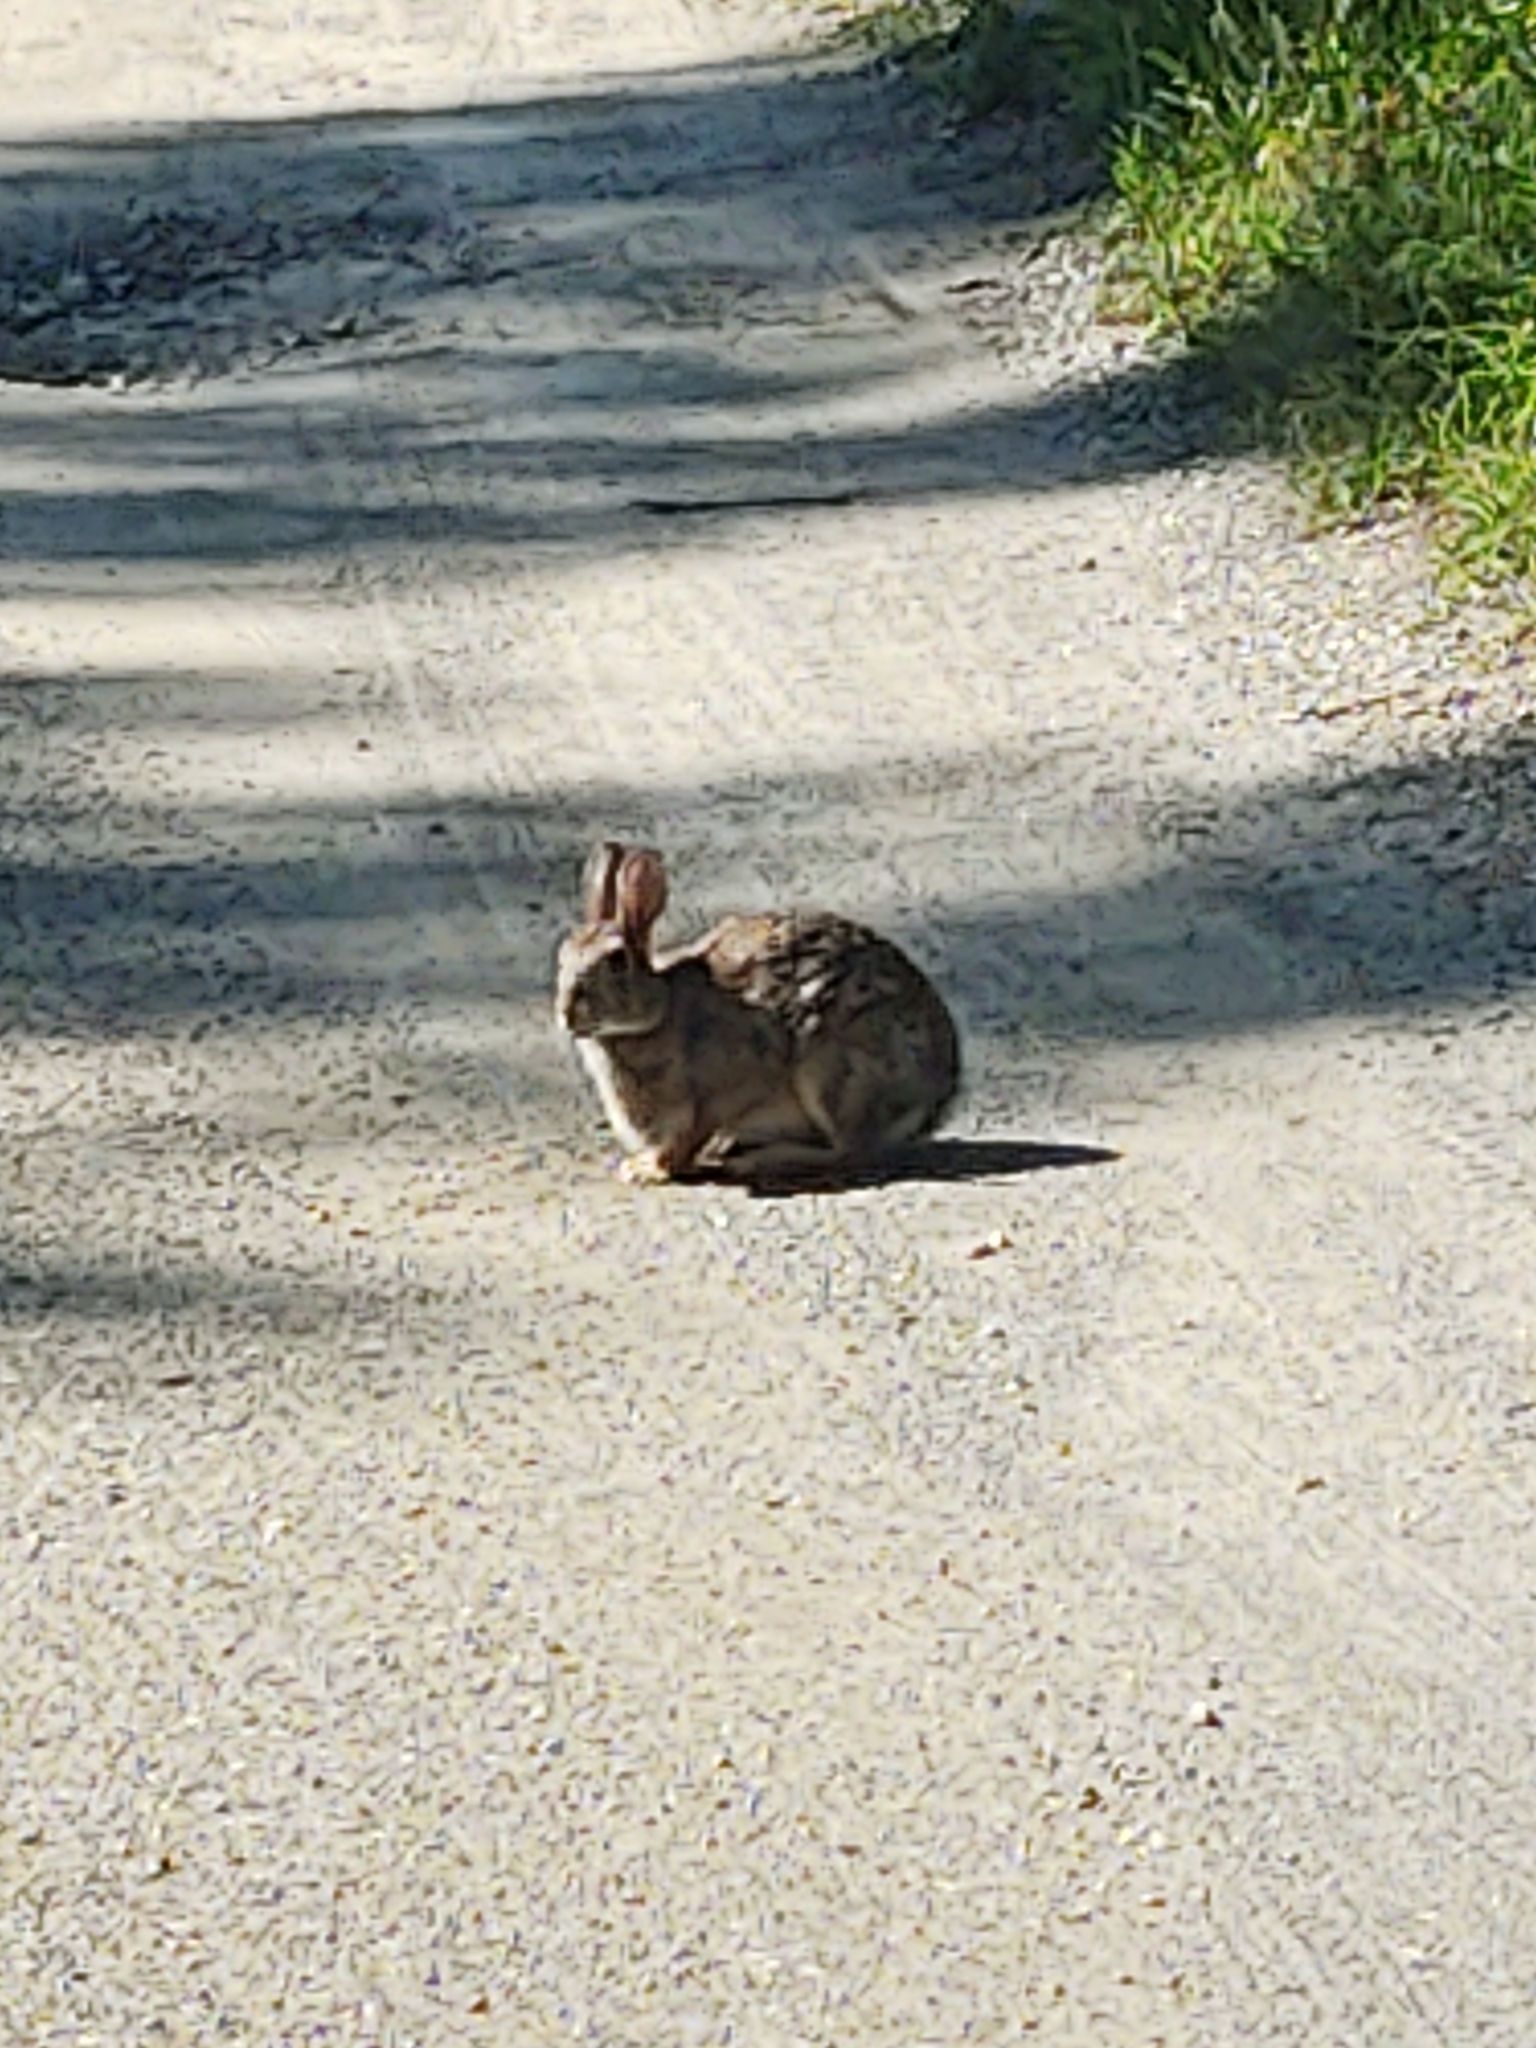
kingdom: Animalia
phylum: Chordata
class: Mammalia
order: Lagomorpha
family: Leporidae
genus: Sylvilagus
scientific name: Sylvilagus floridanus
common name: Eastern cottontail
